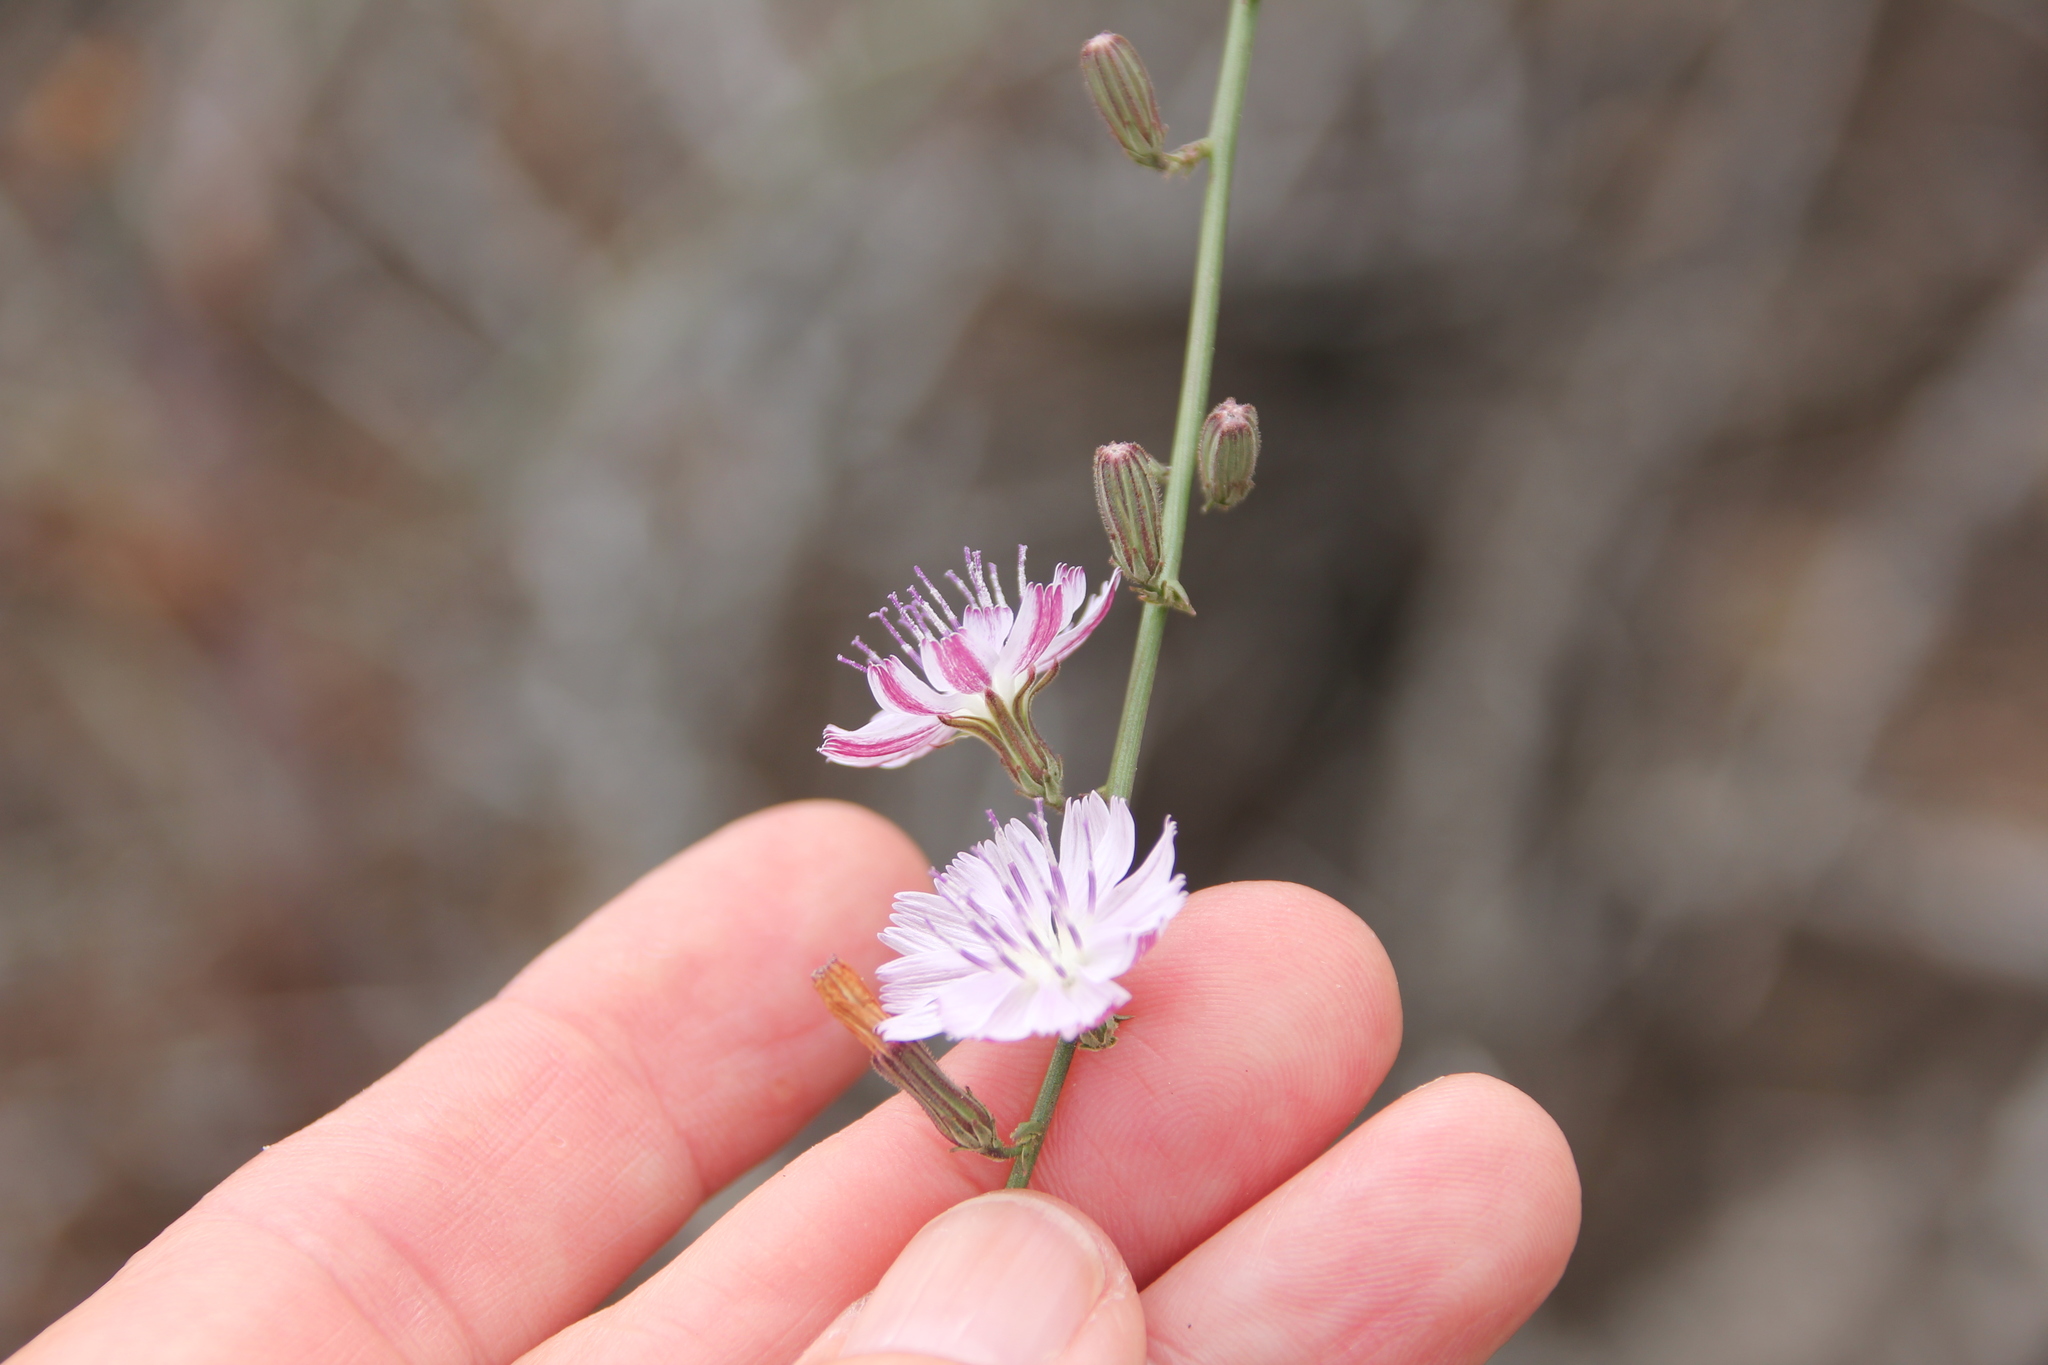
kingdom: Plantae
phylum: Tracheophyta
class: Magnoliopsida
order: Asterales
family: Asteraceae
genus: Stephanomeria
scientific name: Stephanomeria diegensis
